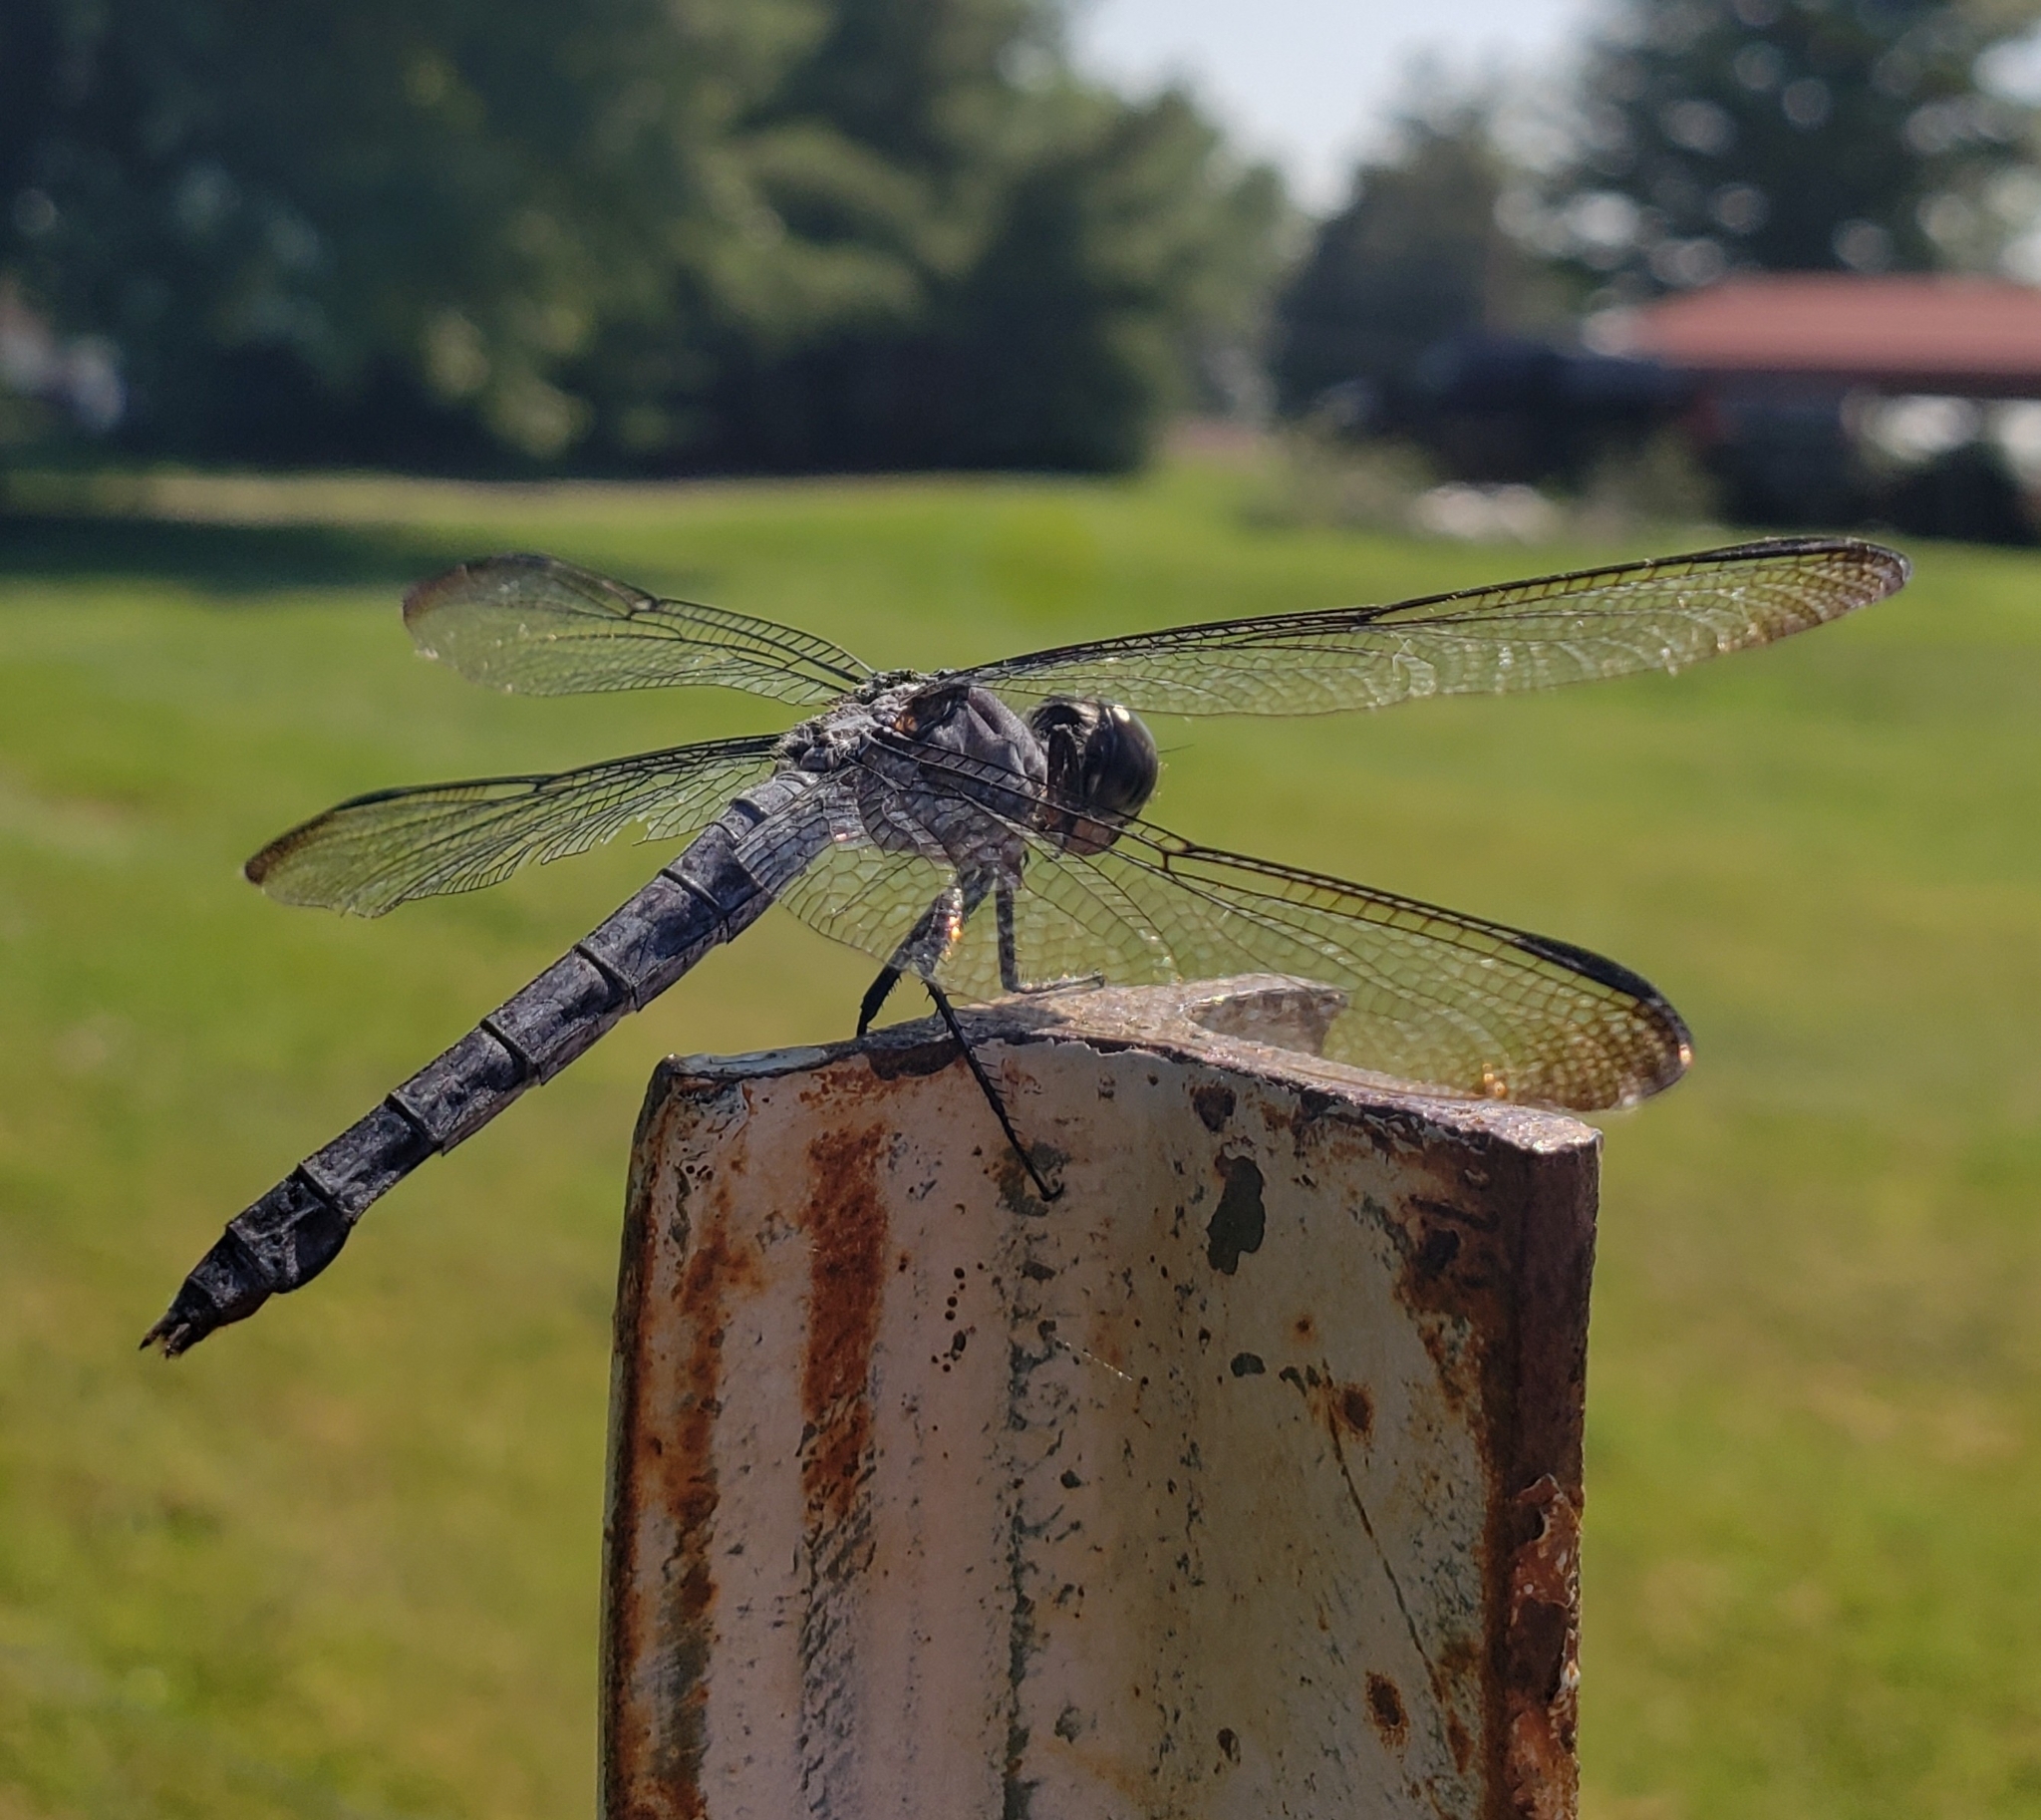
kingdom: Animalia
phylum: Arthropoda
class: Insecta
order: Odonata
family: Libellulidae
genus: Libellula
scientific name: Libellula incesta
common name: Slaty skimmer
